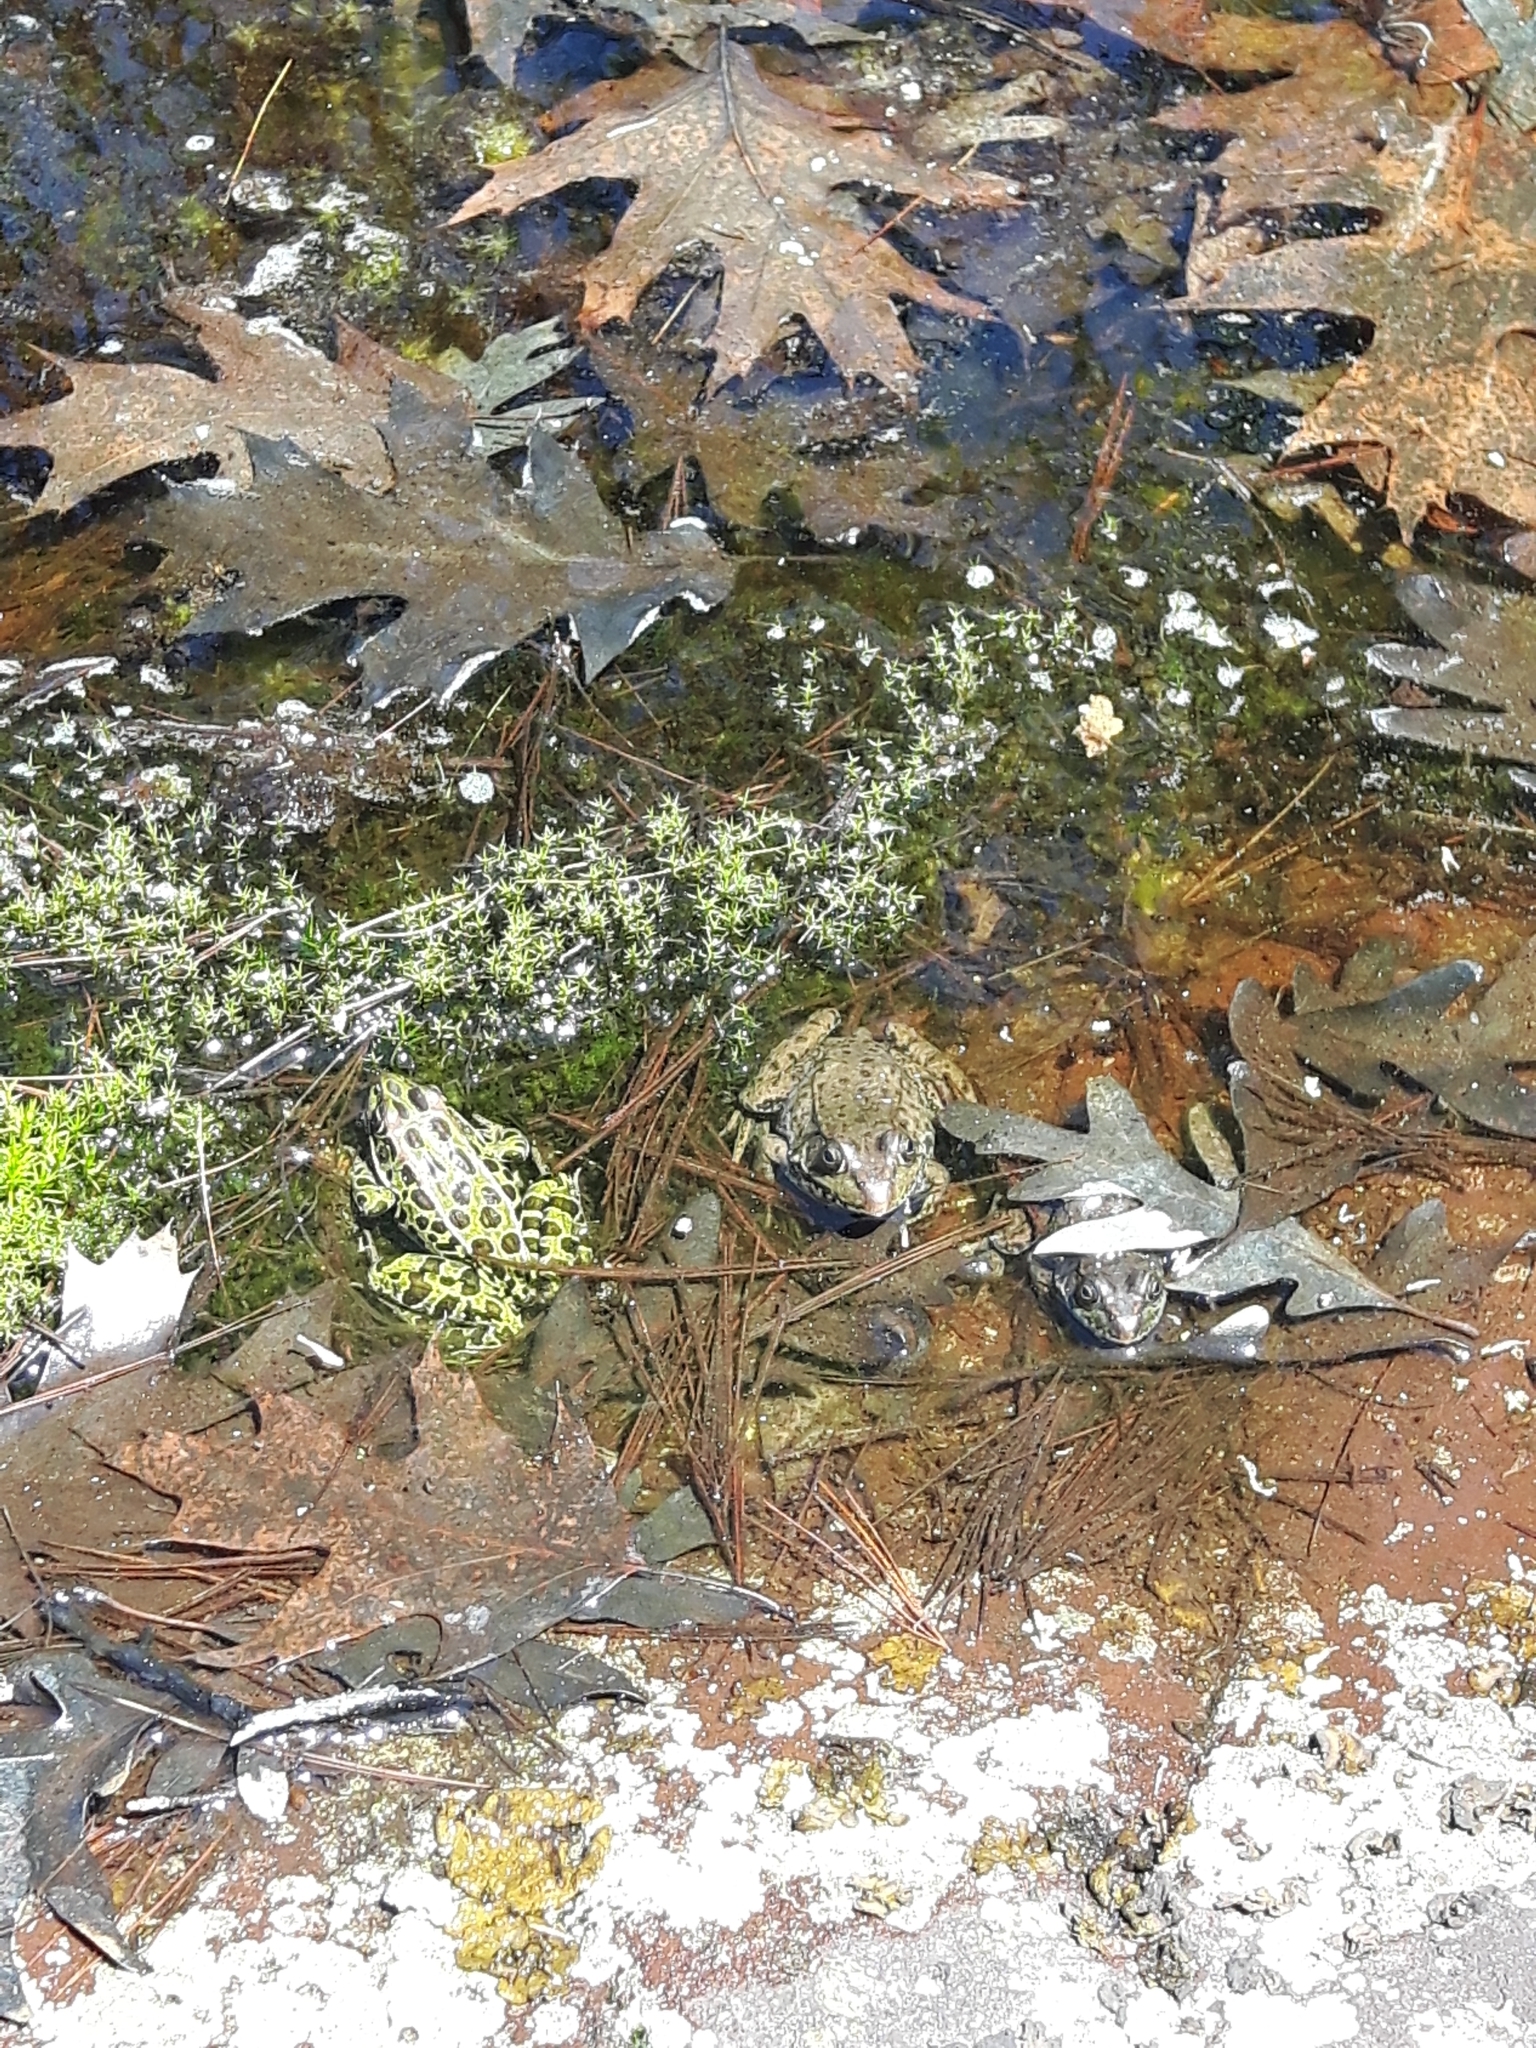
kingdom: Animalia
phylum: Chordata
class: Amphibia
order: Anura
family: Ranidae
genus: Lithobates
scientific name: Lithobates clamitans
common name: Green frog
